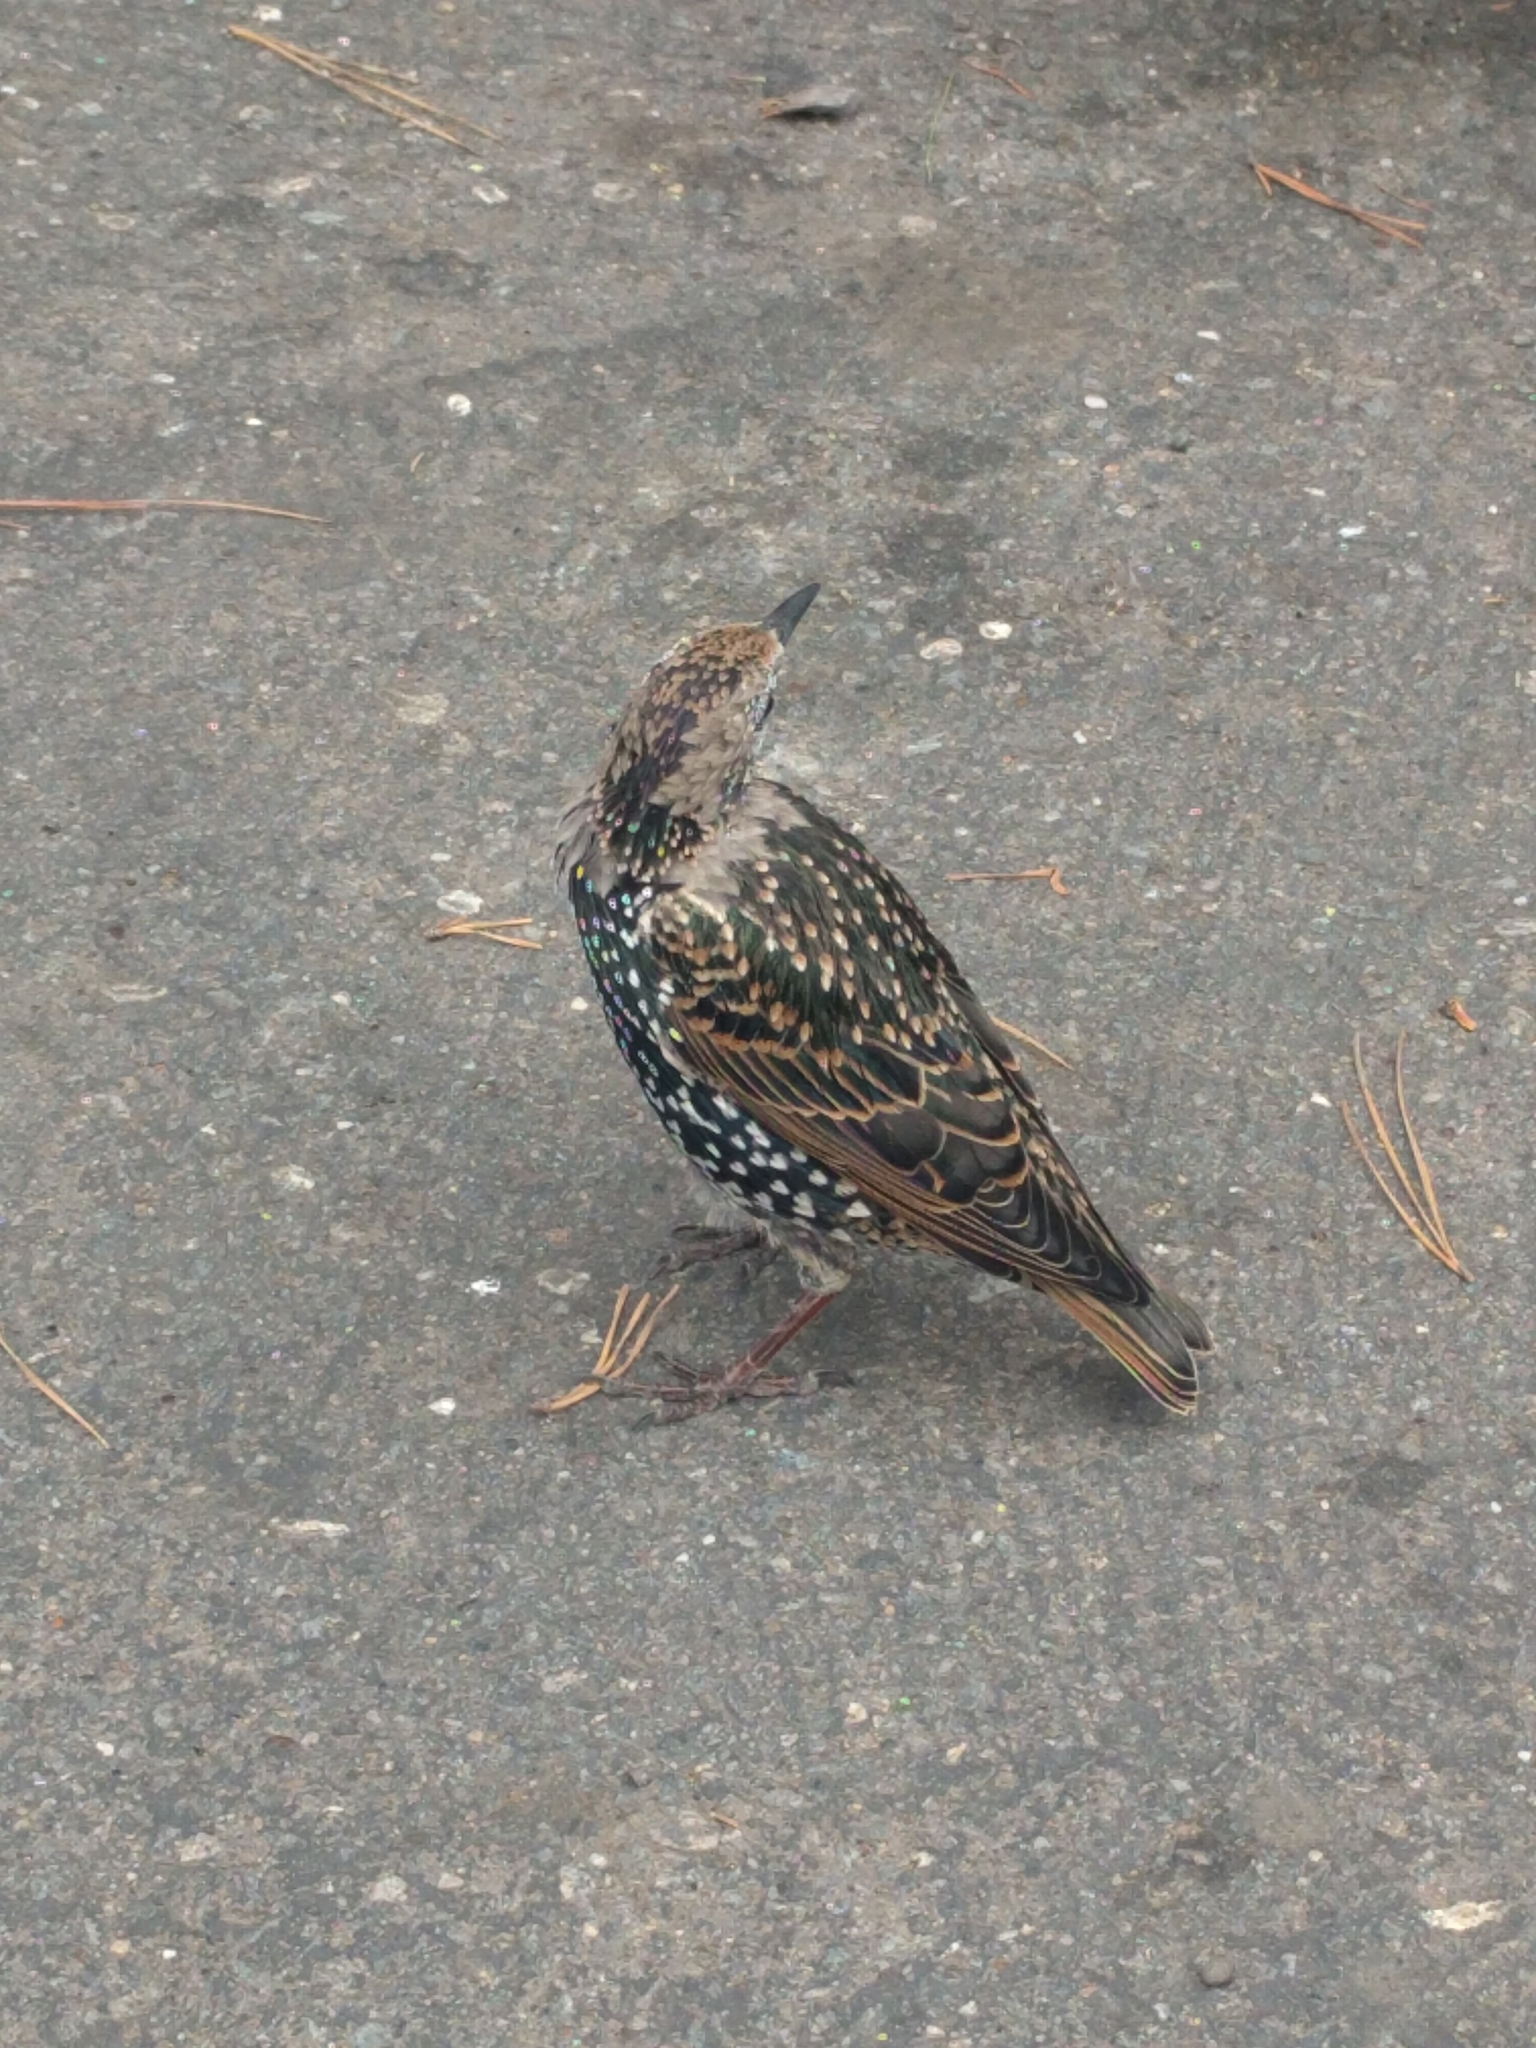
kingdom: Animalia
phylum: Chordata
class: Aves
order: Passeriformes
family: Sturnidae
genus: Sturnus
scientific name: Sturnus vulgaris
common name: Common starling
